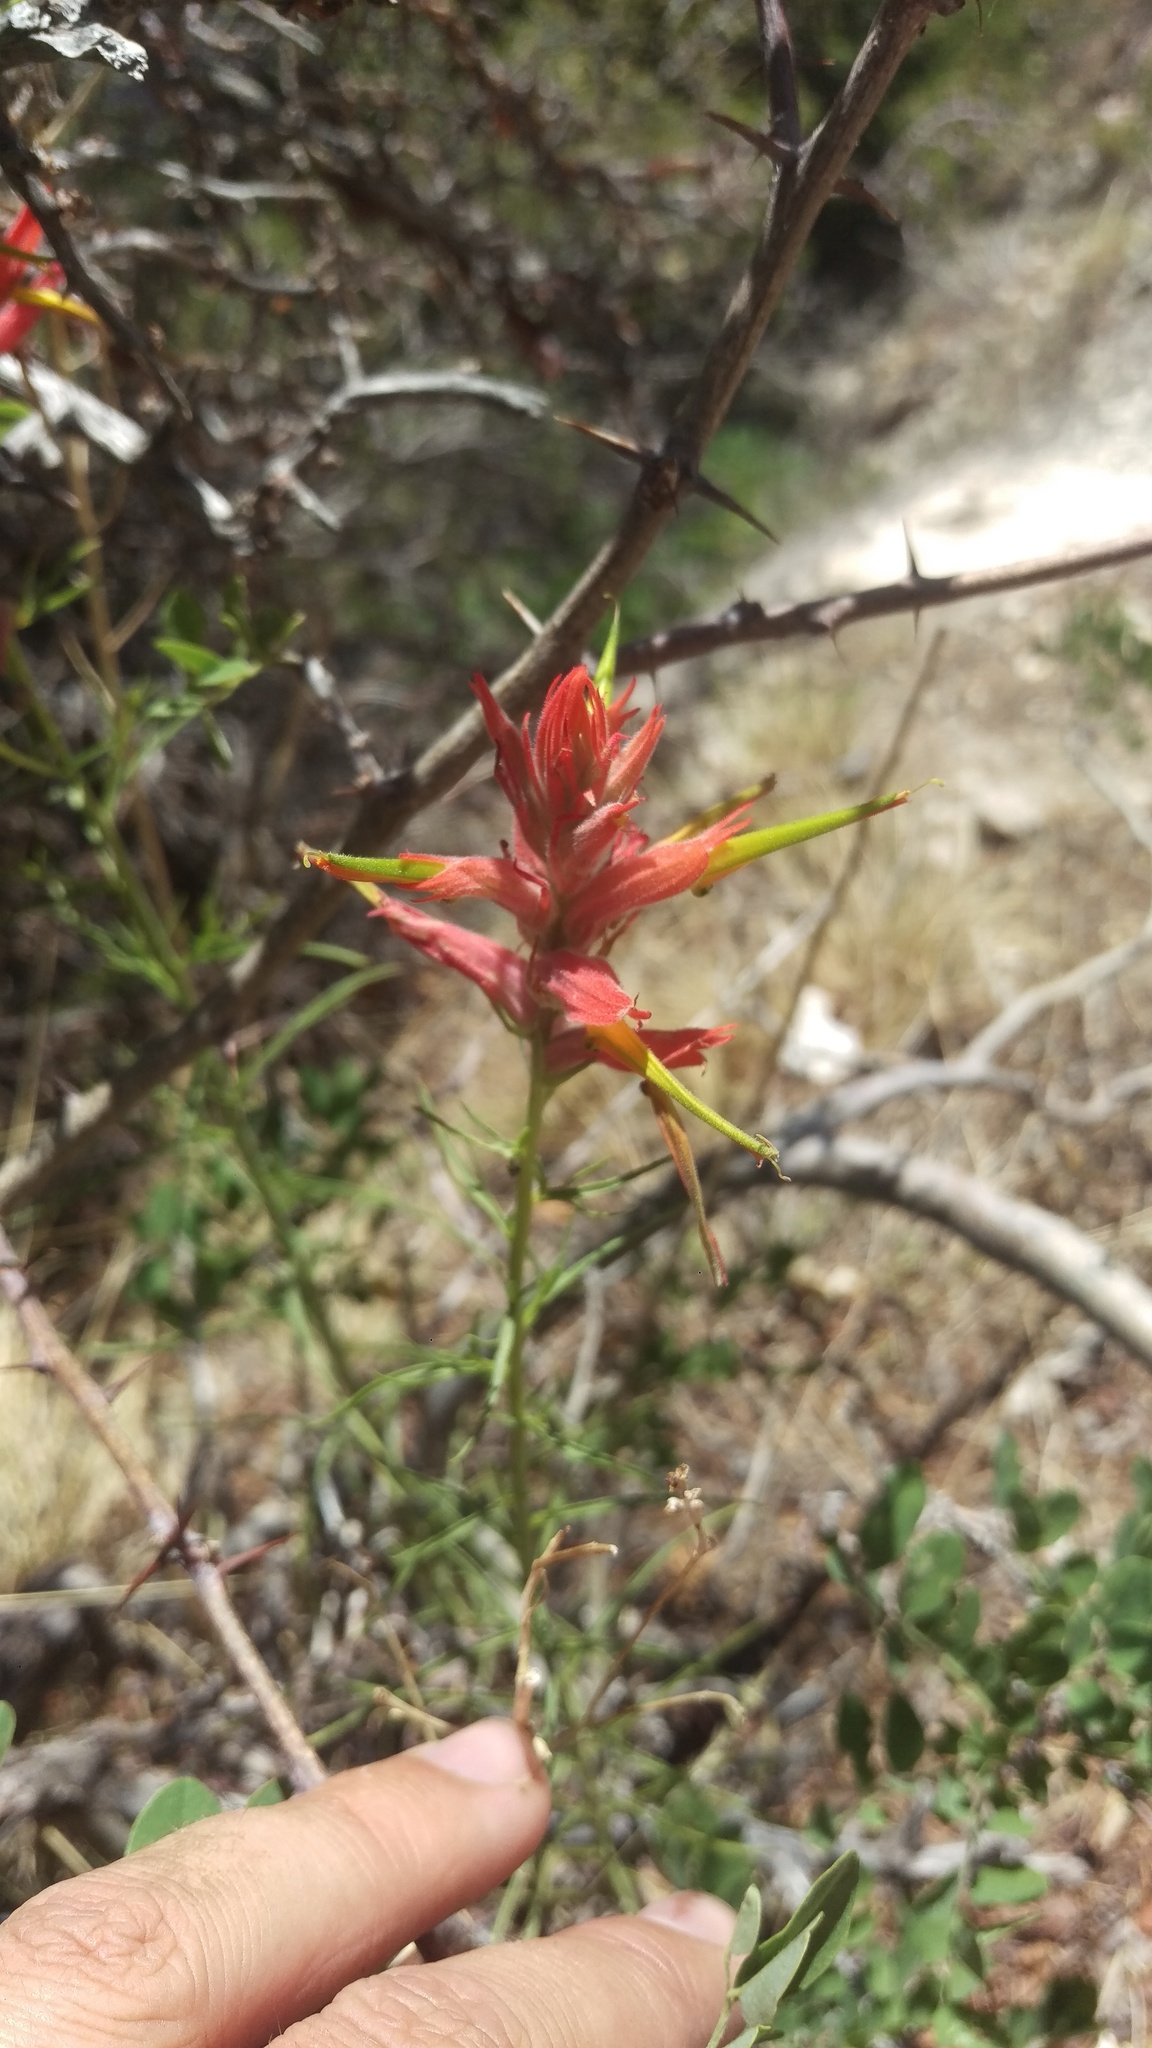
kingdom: Plantae
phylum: Tracheophyta
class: Magnoliopsida
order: Lamiales
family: Orobanchaceae
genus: Castilleja
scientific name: Castilleja linariifolia
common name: Wyoming paintbrush
